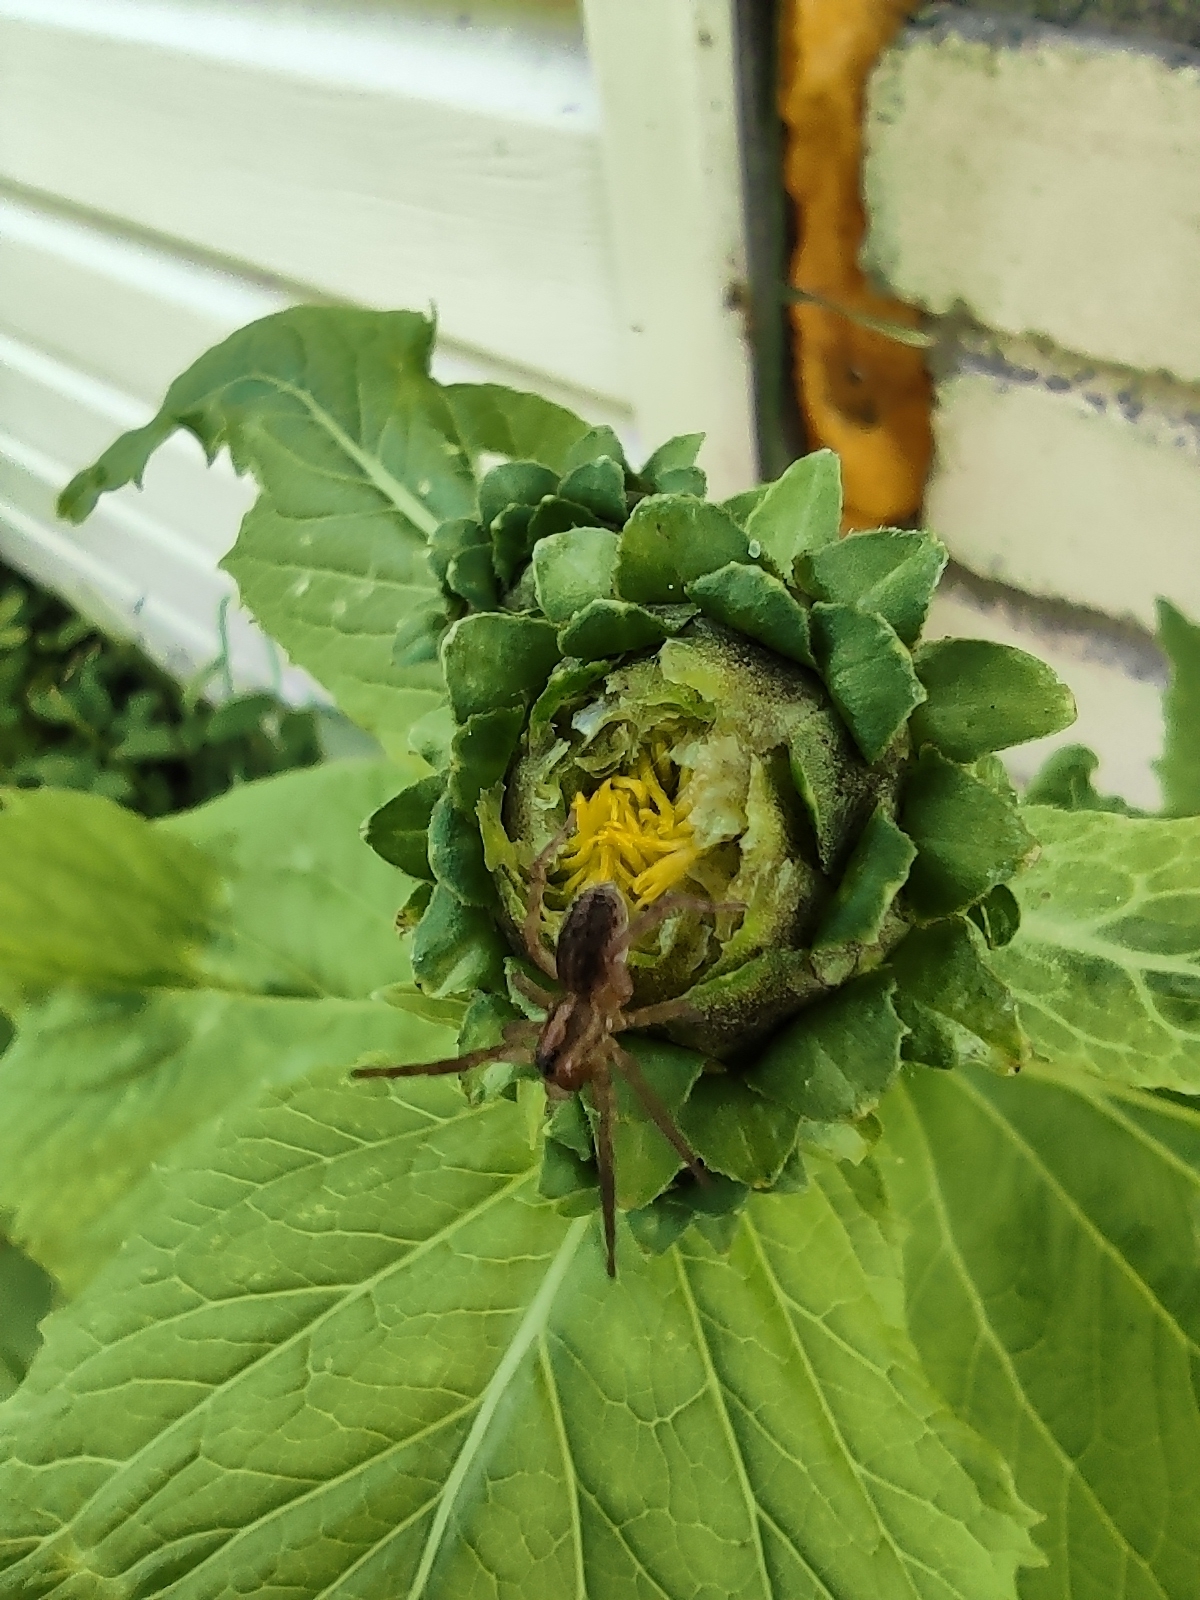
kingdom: Animalia
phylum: Arthropoda
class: Arachnida
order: Araneae
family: Lycosidae
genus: Trochosa
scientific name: Trochosa
